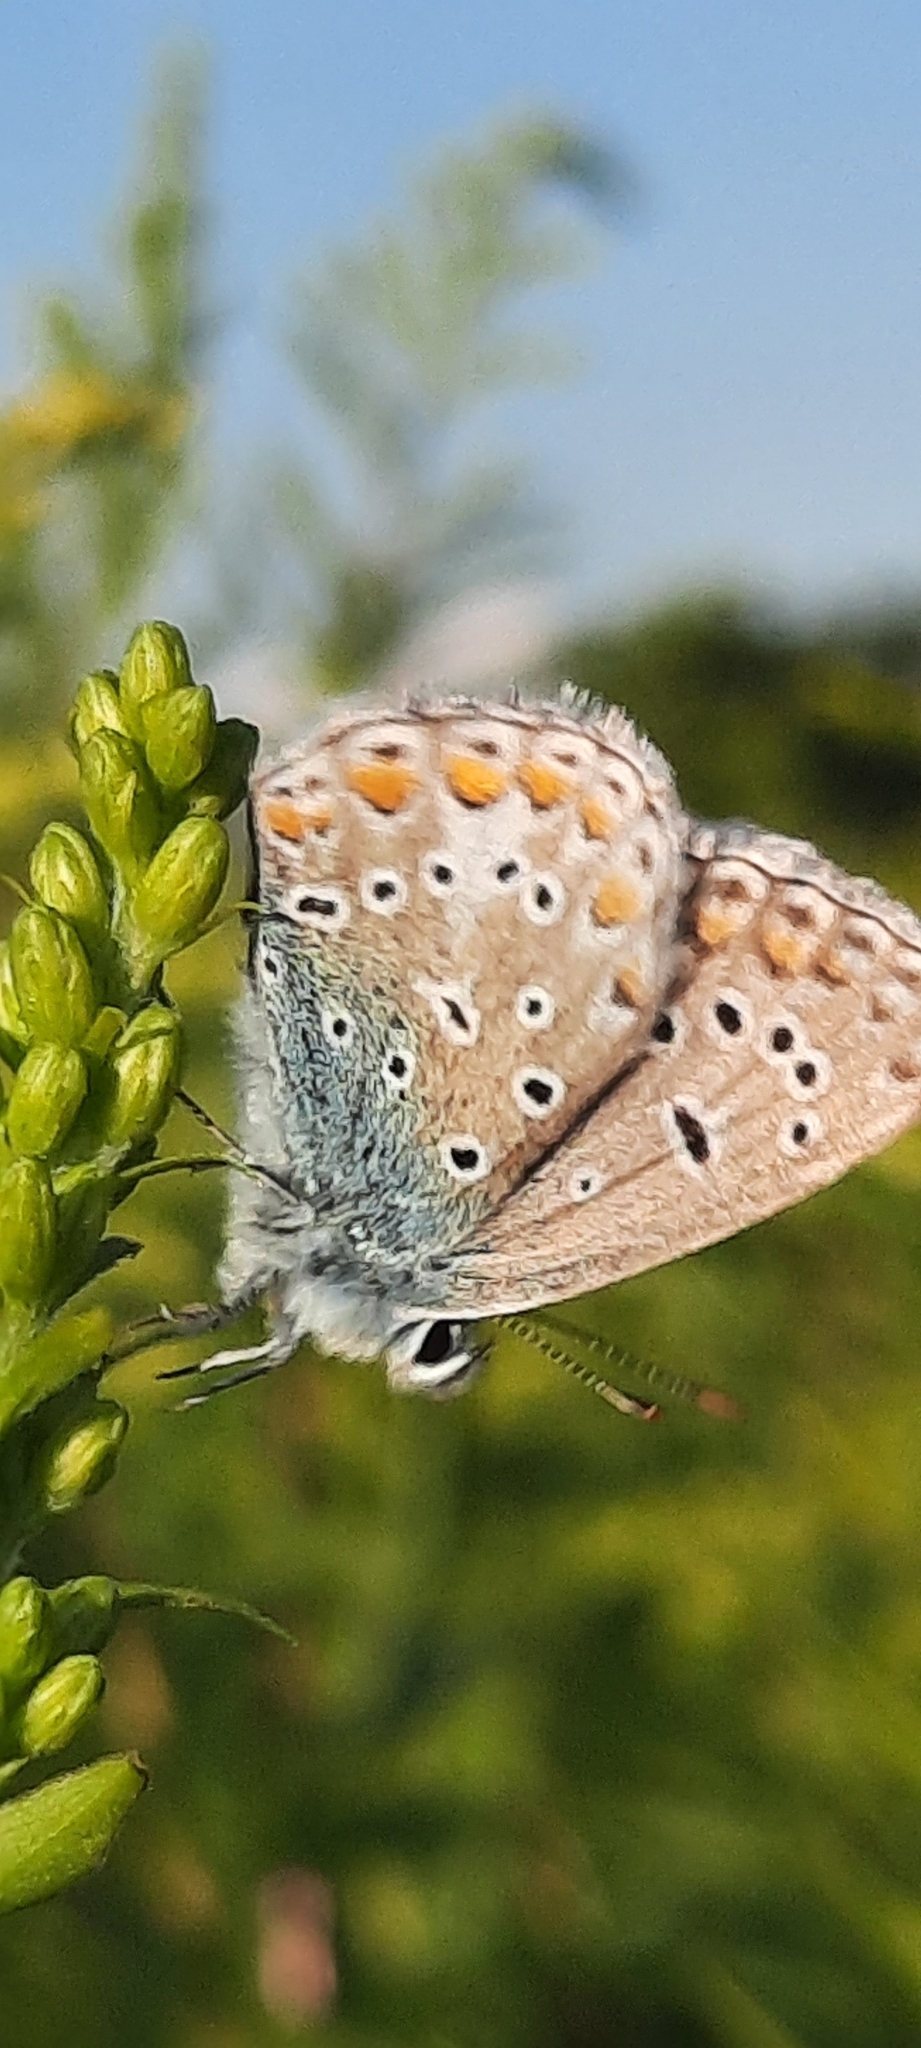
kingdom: Animalia
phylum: Arthropoda
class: Insecta
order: Lepidoptera
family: Lycaenidae
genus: Polyommatus
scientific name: Polyommatus icarus
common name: Common blue
